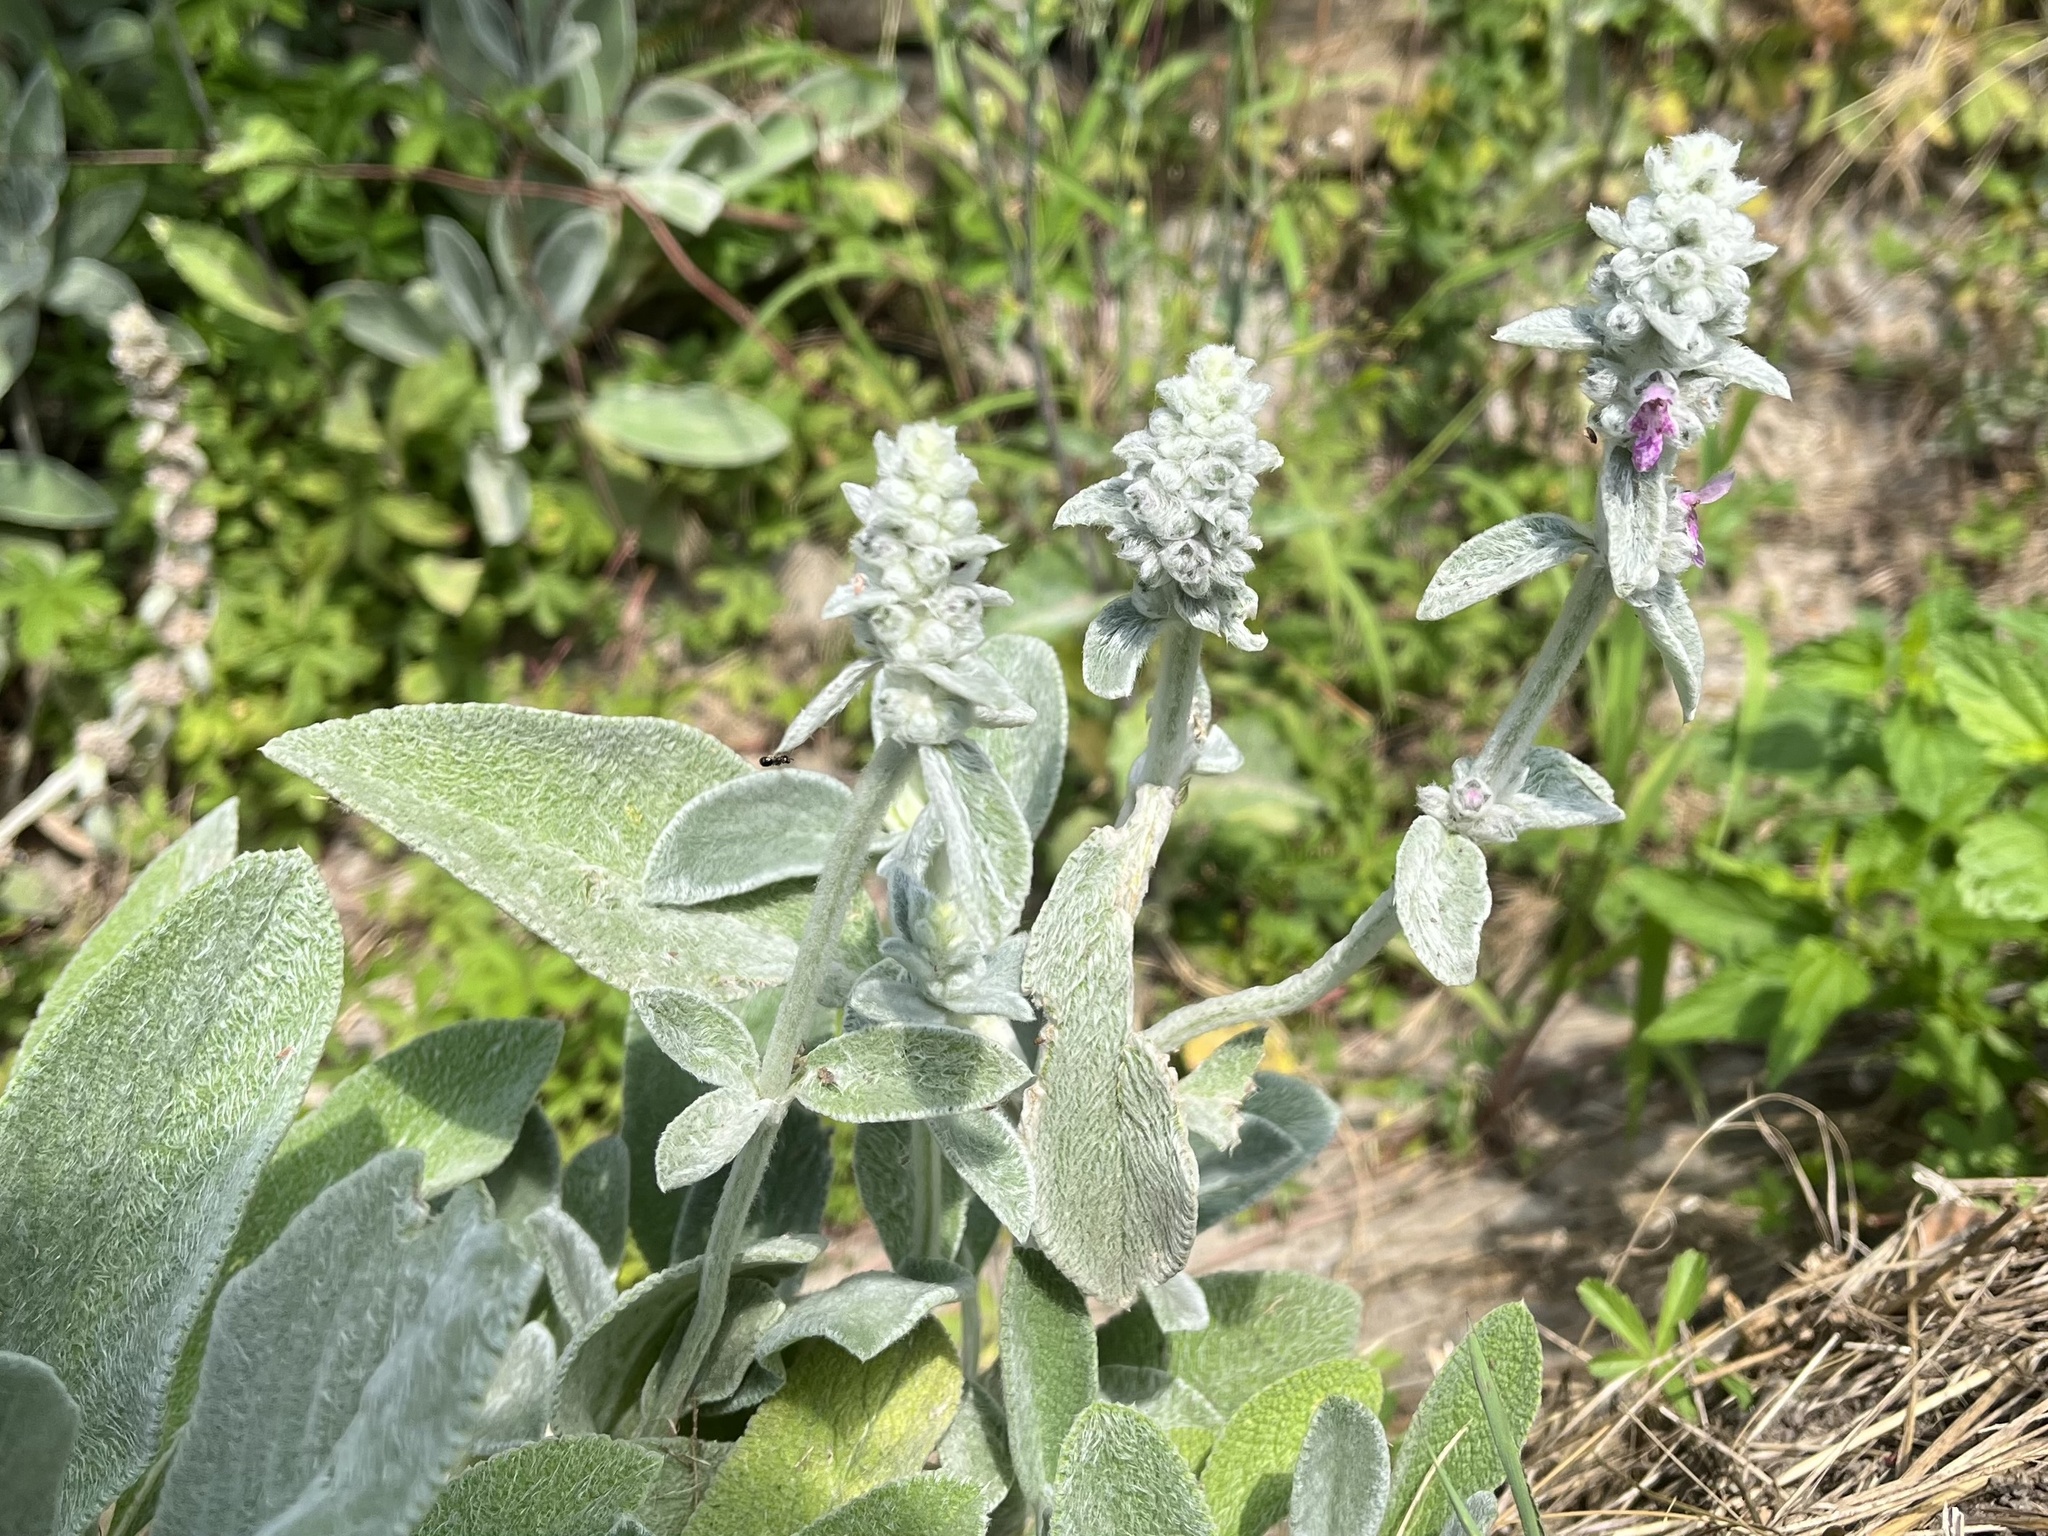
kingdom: Plantae
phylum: Tracheophyta
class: Magnoliopsida
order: Lamiales
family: Lamiaceae
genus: Stachys
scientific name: Stachys byzantina
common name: Lamb's-ear
